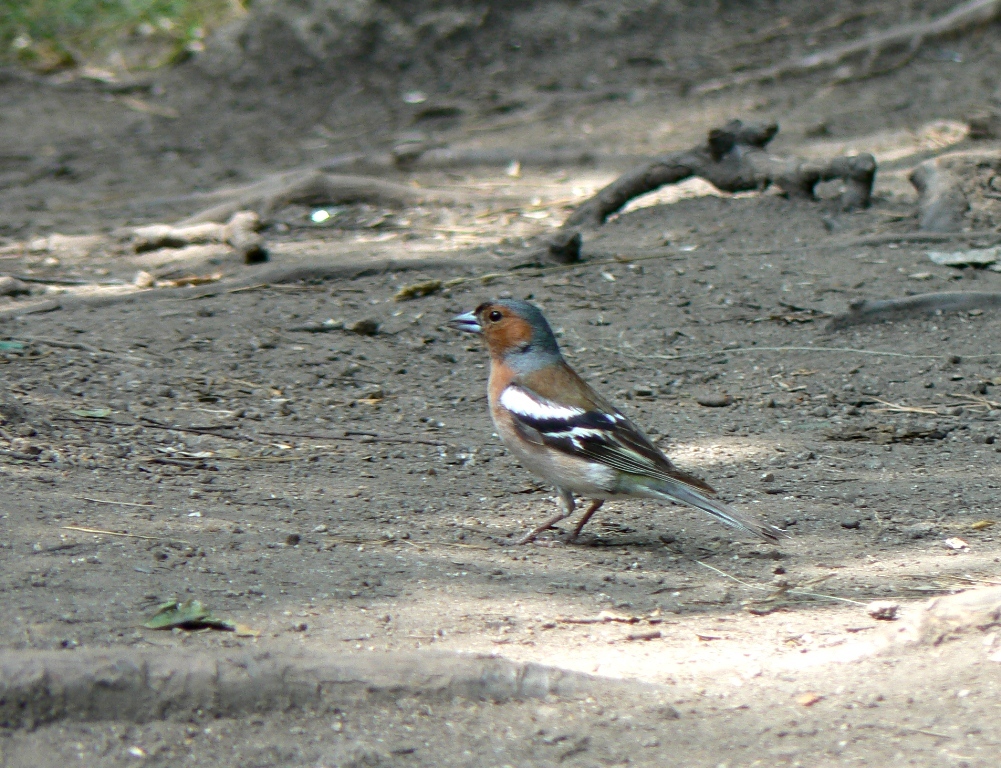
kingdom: Animalia
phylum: Chordata
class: Aves
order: Passeriformes
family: Fringillidae
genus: Fringilla
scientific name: Fringilla coelebs
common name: Common chaffinch
